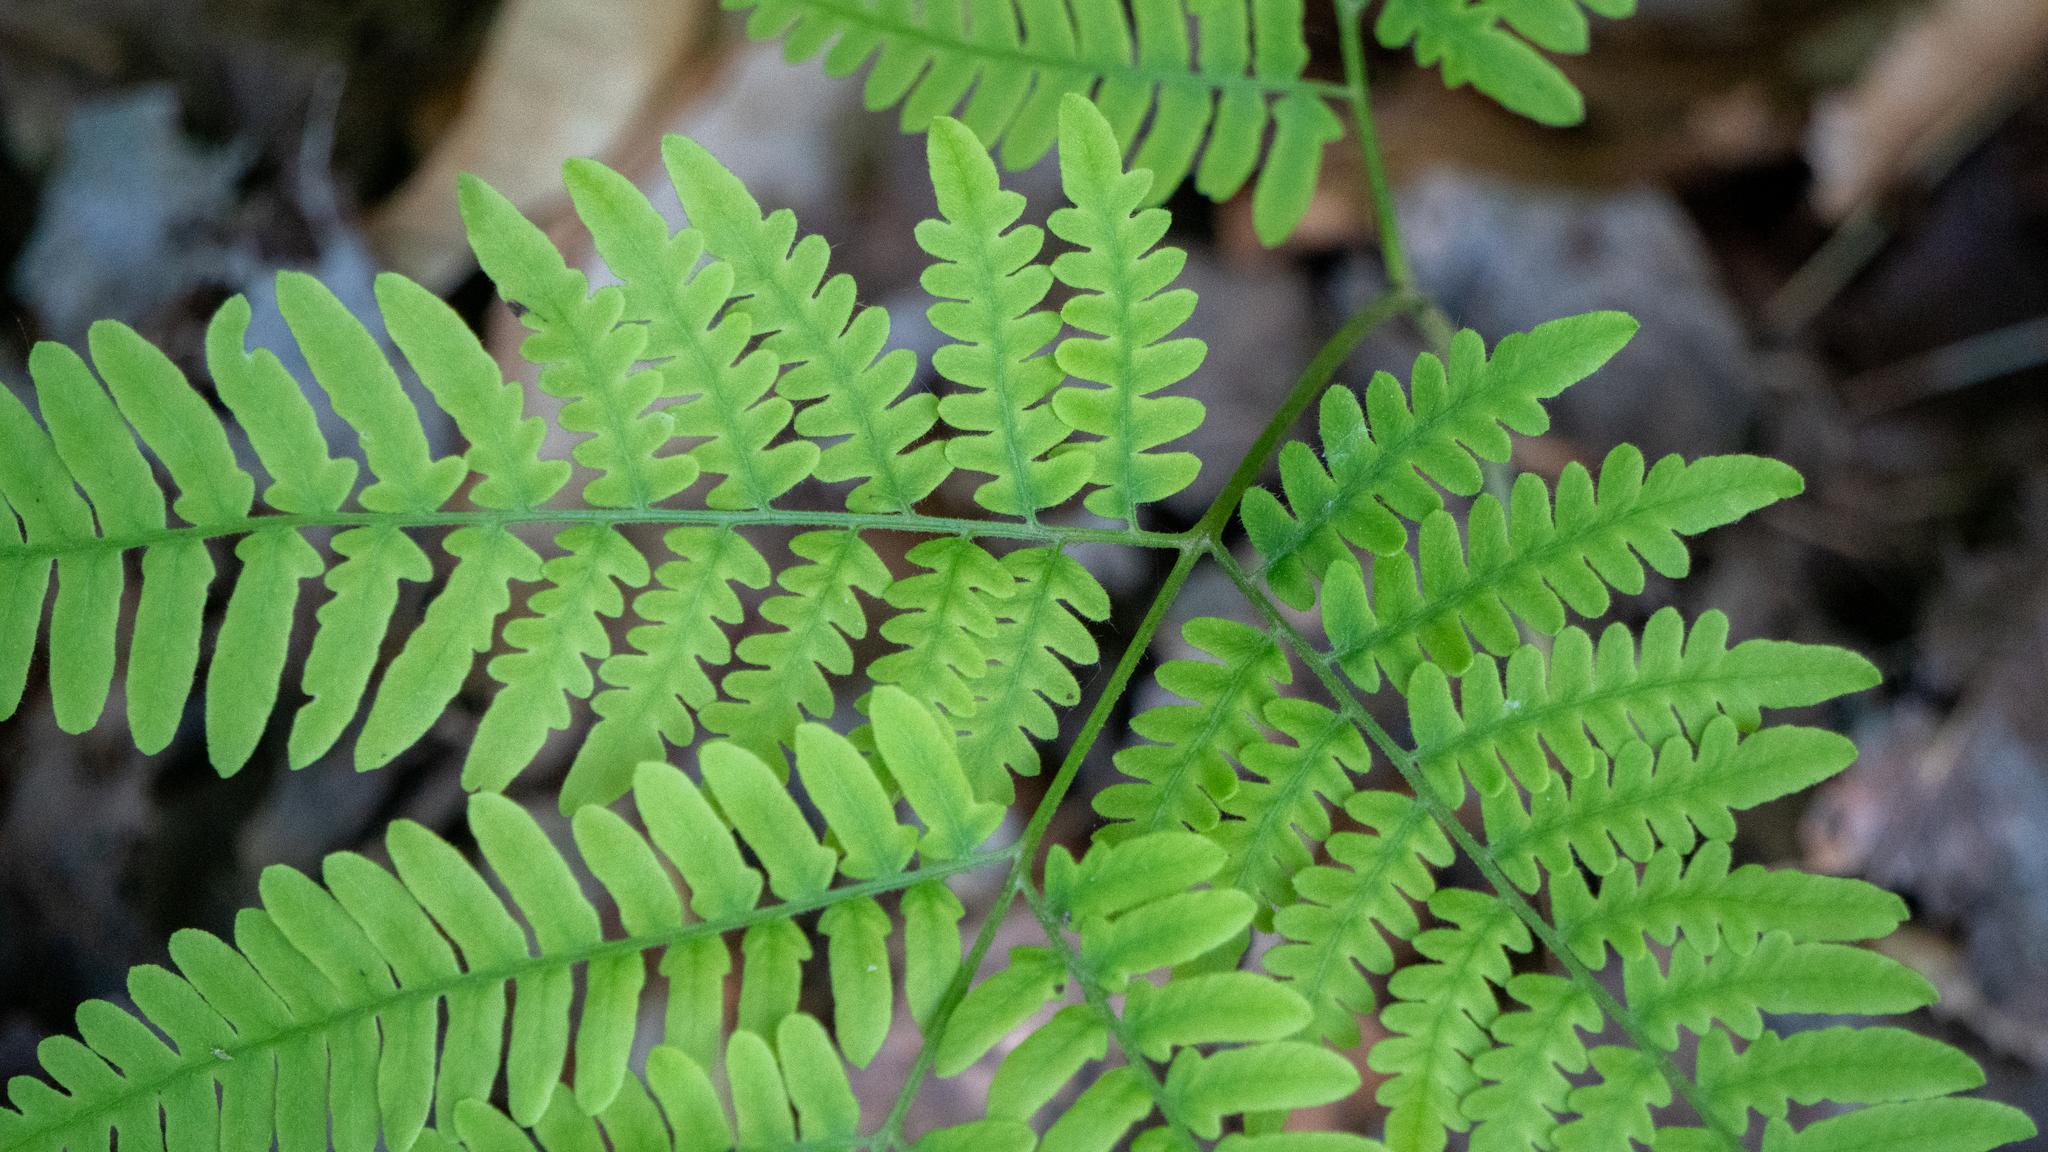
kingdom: Plantae
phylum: Tracheophyta
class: Polypodiopsida
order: Polypodiales
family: Dennstaedtiaceae
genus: Pteridium
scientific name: Pteridium aquilinum
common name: Bracken
